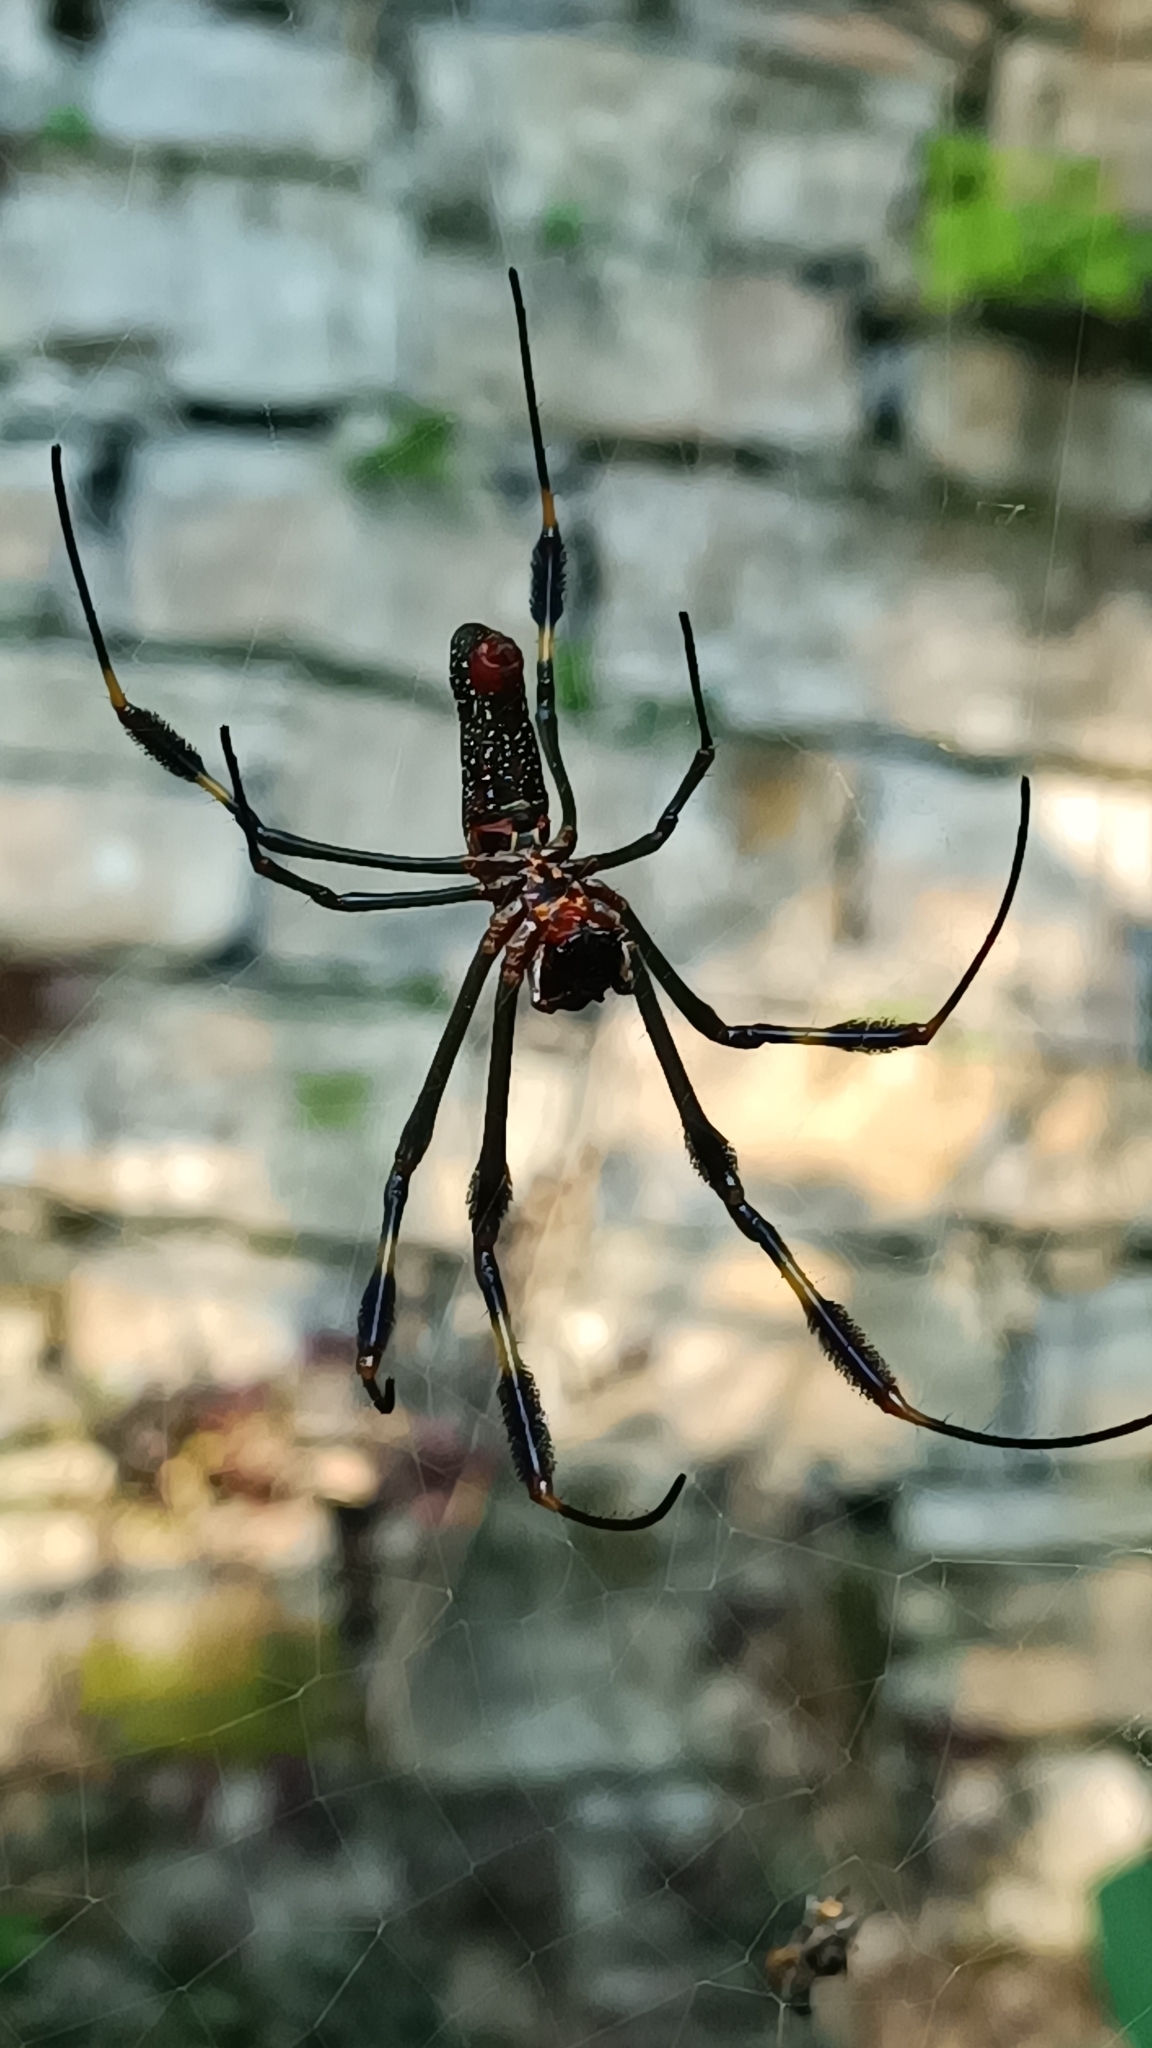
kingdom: Animalia
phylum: Arthropoda
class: Arachnida
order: Araneae
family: Araneidae
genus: Trichonephila
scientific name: Trichonephila clavipes
